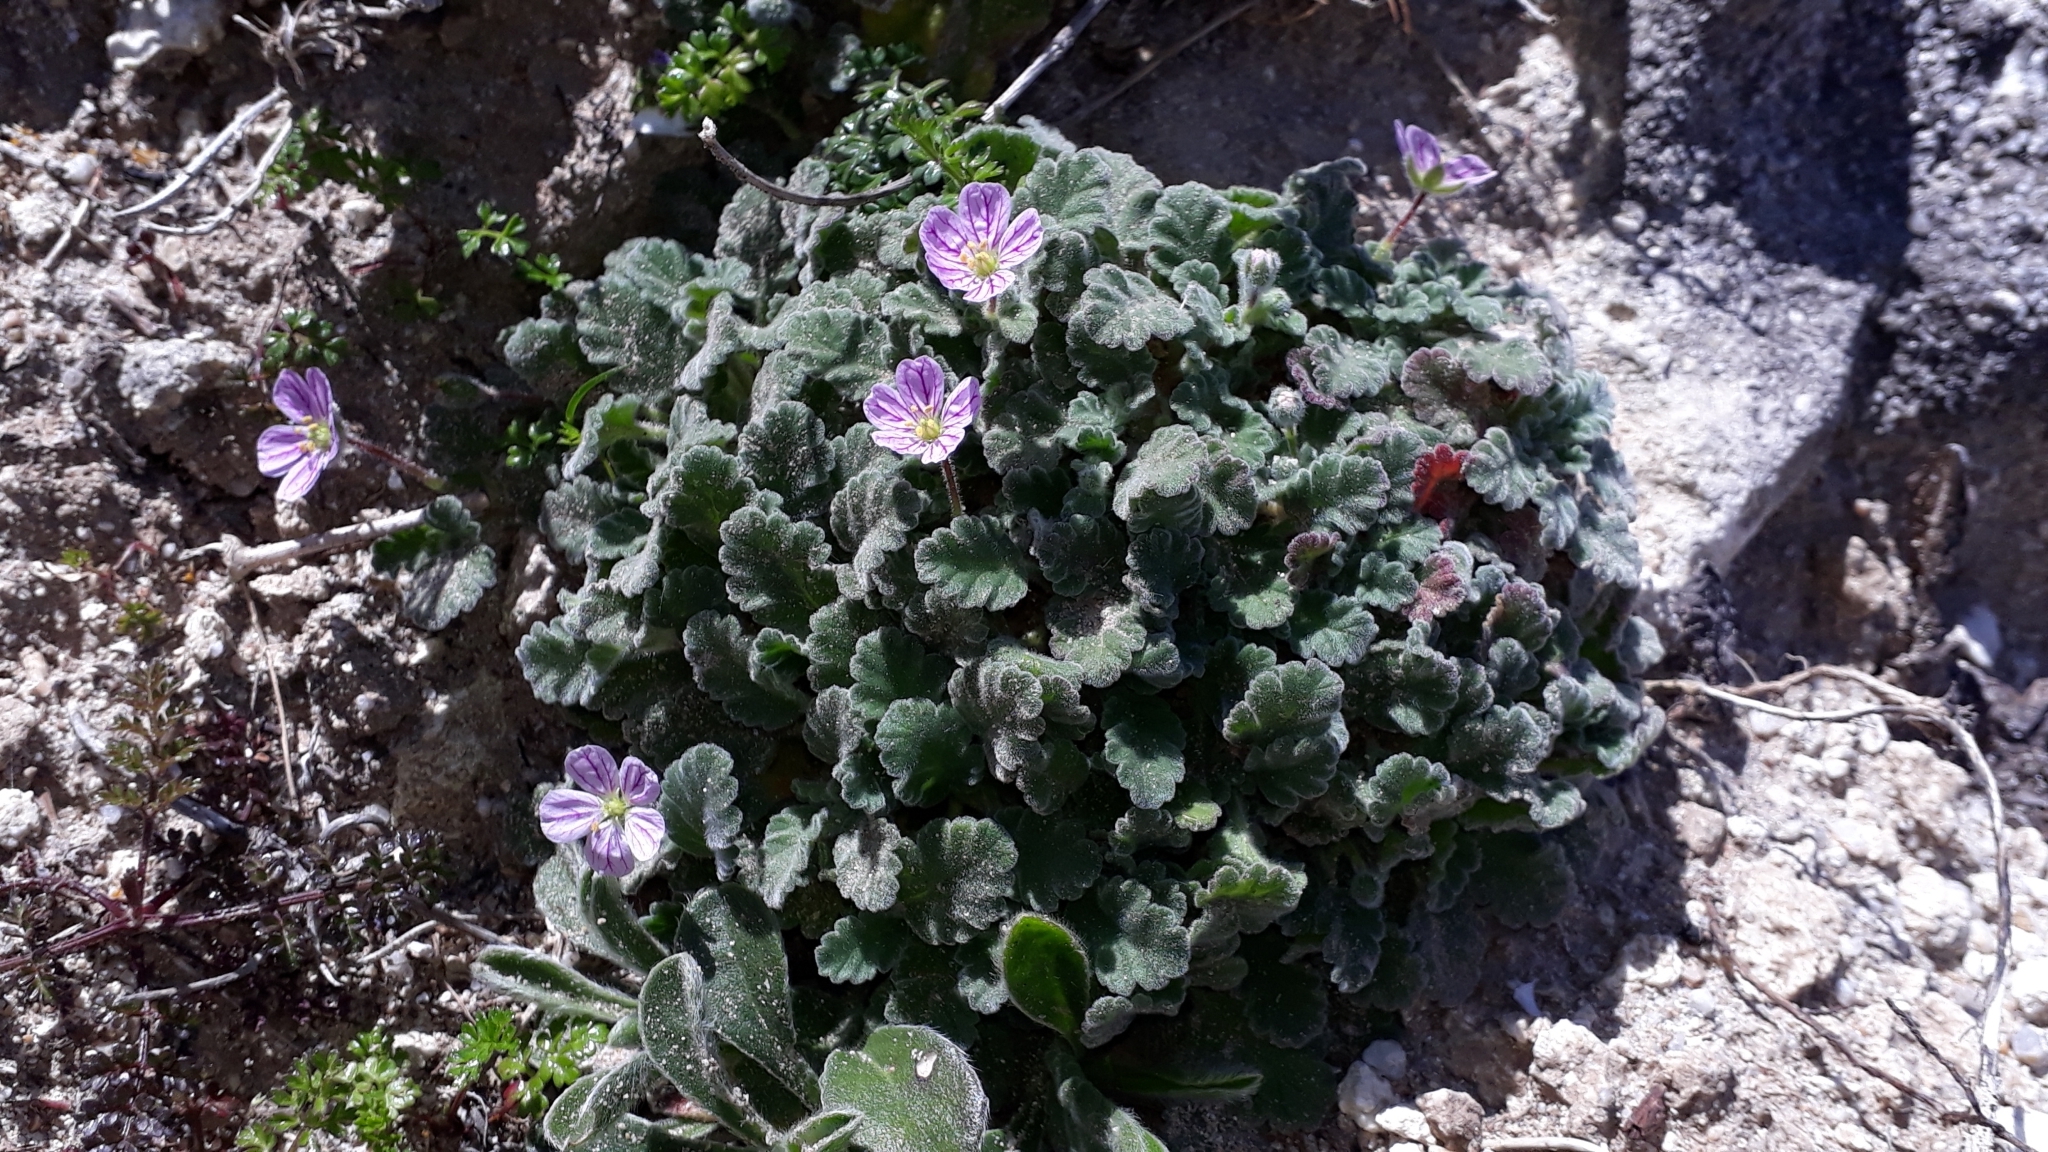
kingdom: Plantae
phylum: Tracheophyta
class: Magnoliopsida
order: Geraniales
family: Geraniaceae
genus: Erodium
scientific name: Erodium corsicum
